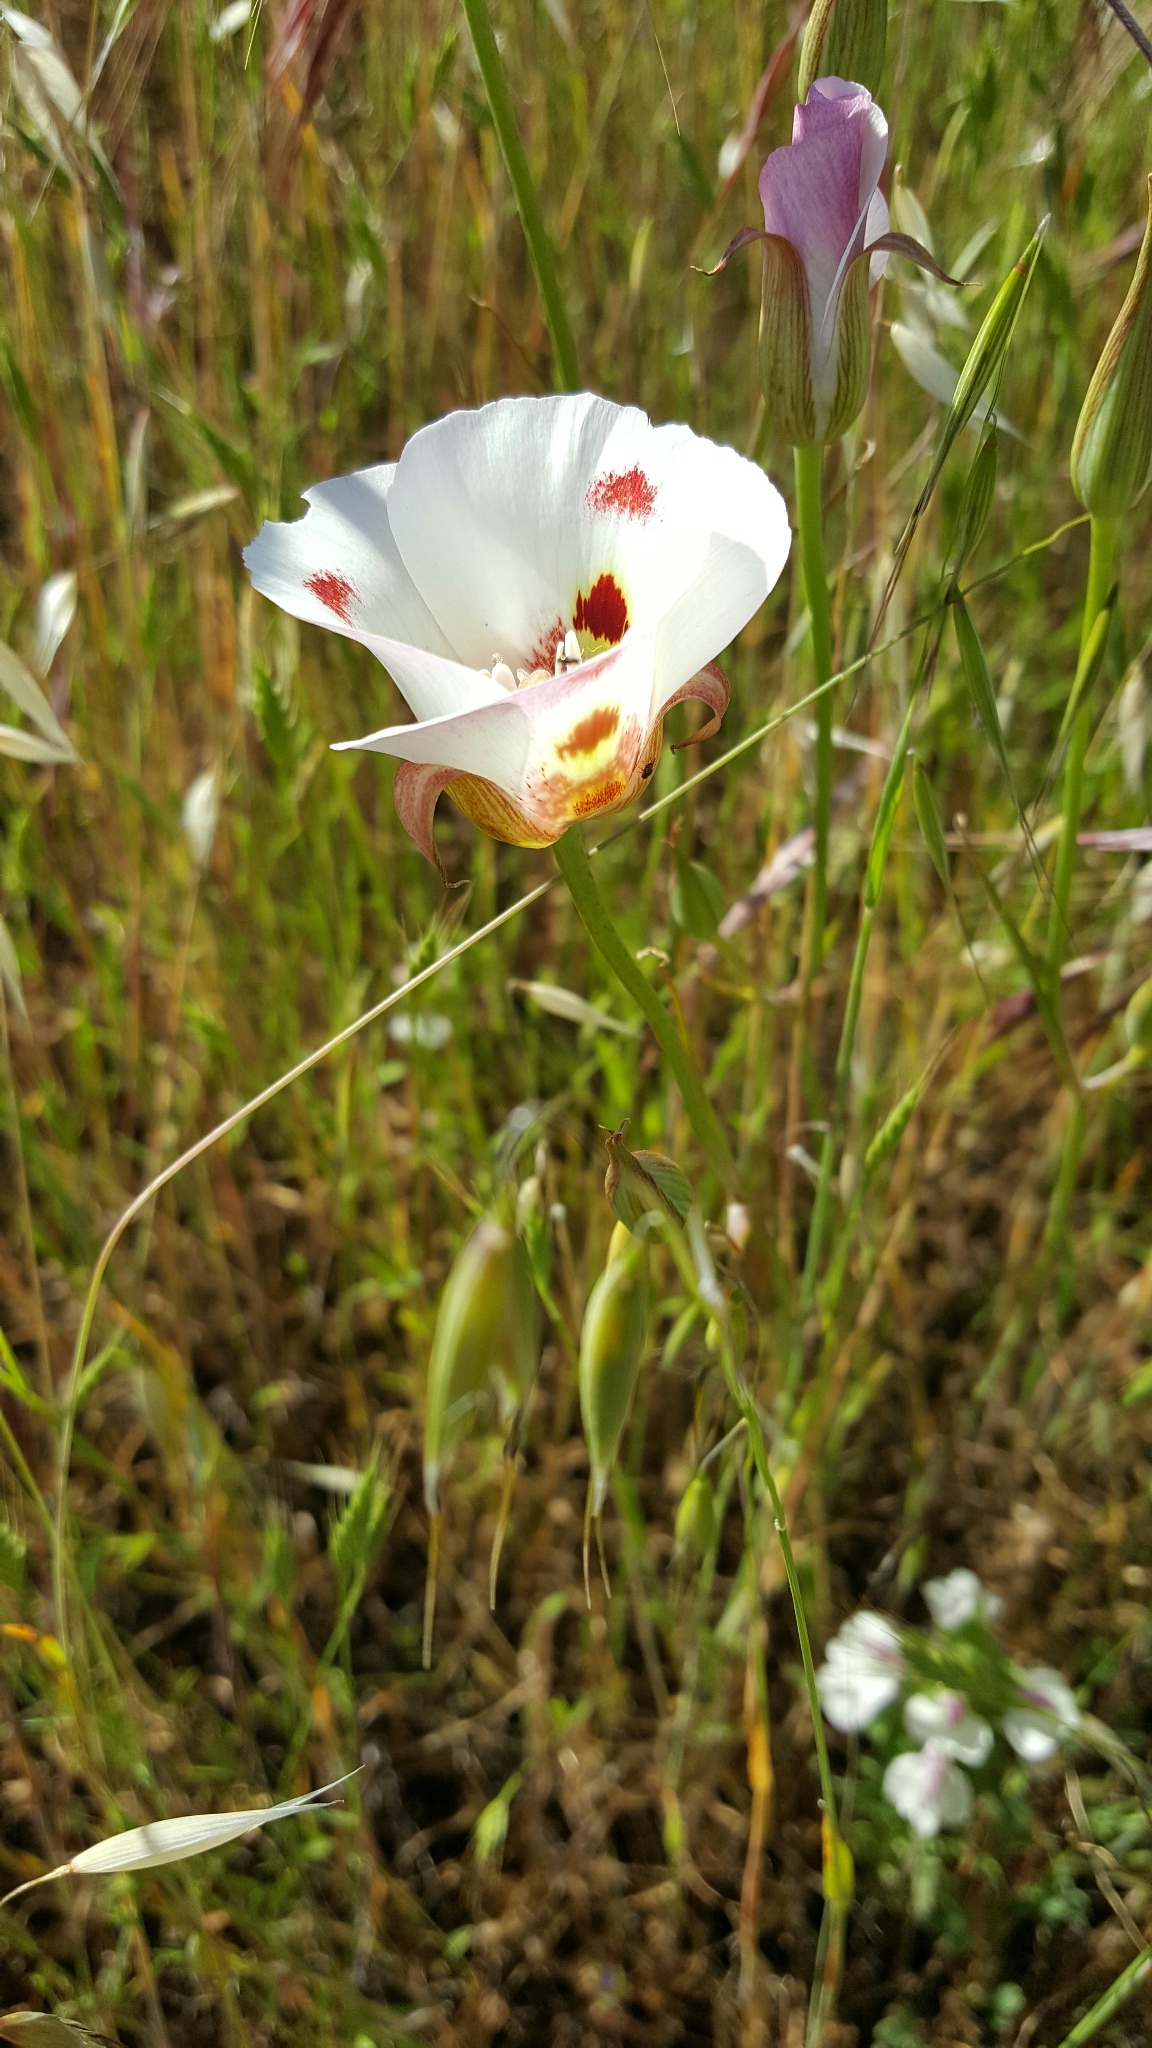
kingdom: Plantae
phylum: Tracheophyta
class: Liliopsida
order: Liliales
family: Liliaceae
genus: Calochortus
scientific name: Calochortus venustus
